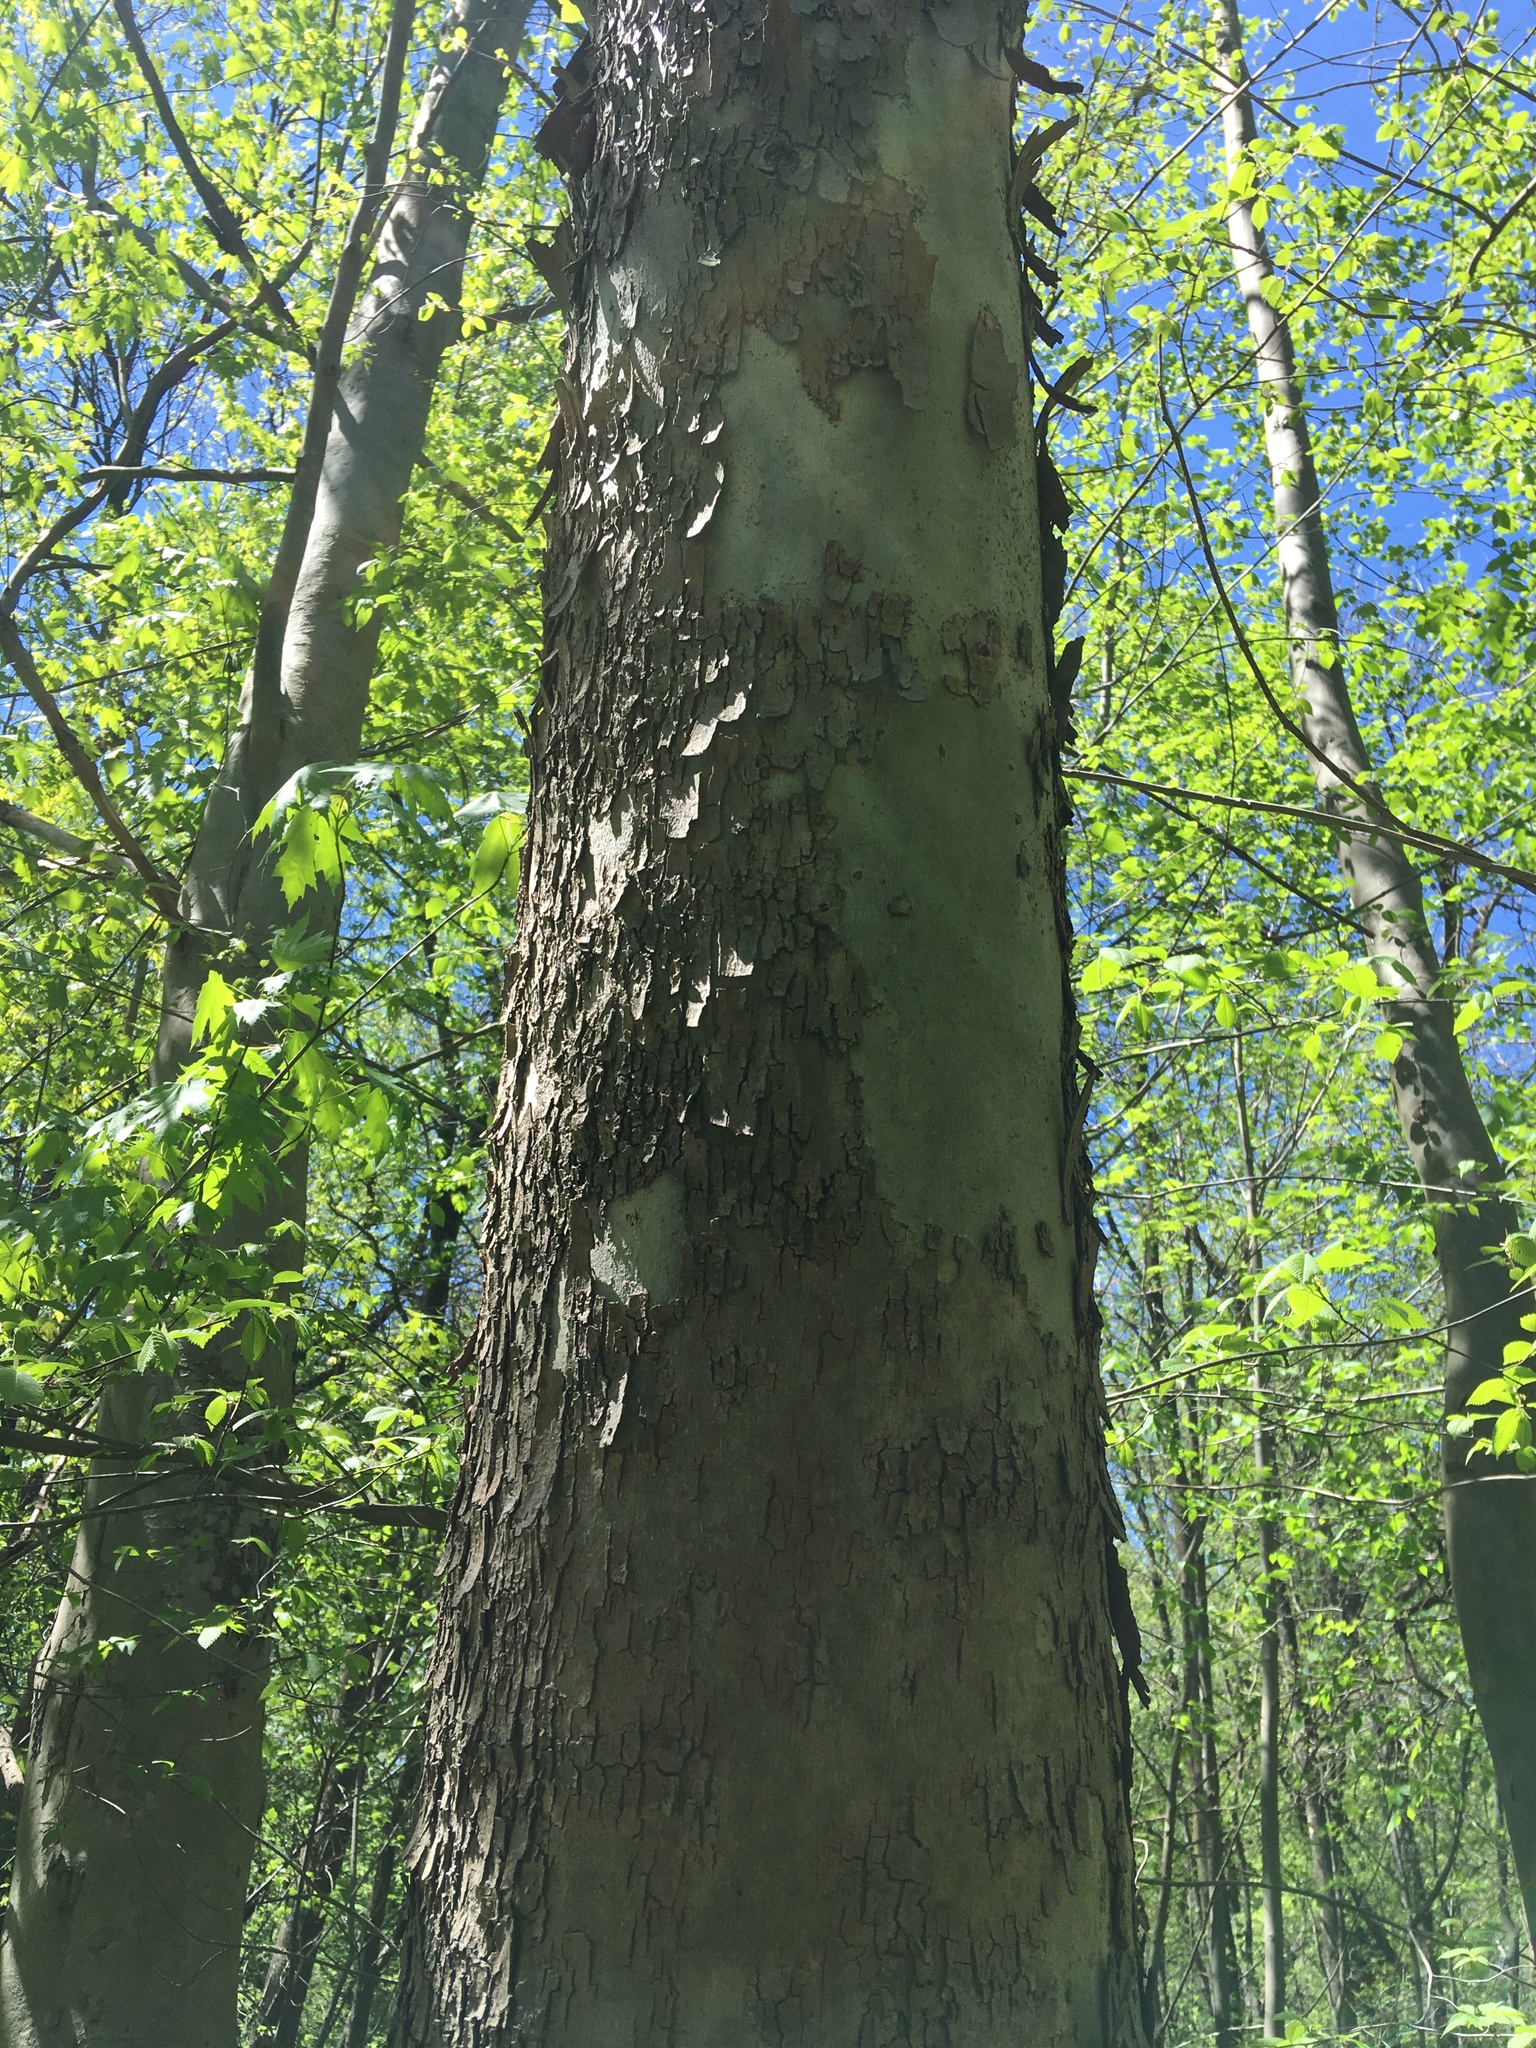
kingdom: Plantae
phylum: Tracheophyta
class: Magnoliopsida
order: Proteales
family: Platanaceae
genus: Platanus
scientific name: Platanus occidentalis
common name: American sycamore
